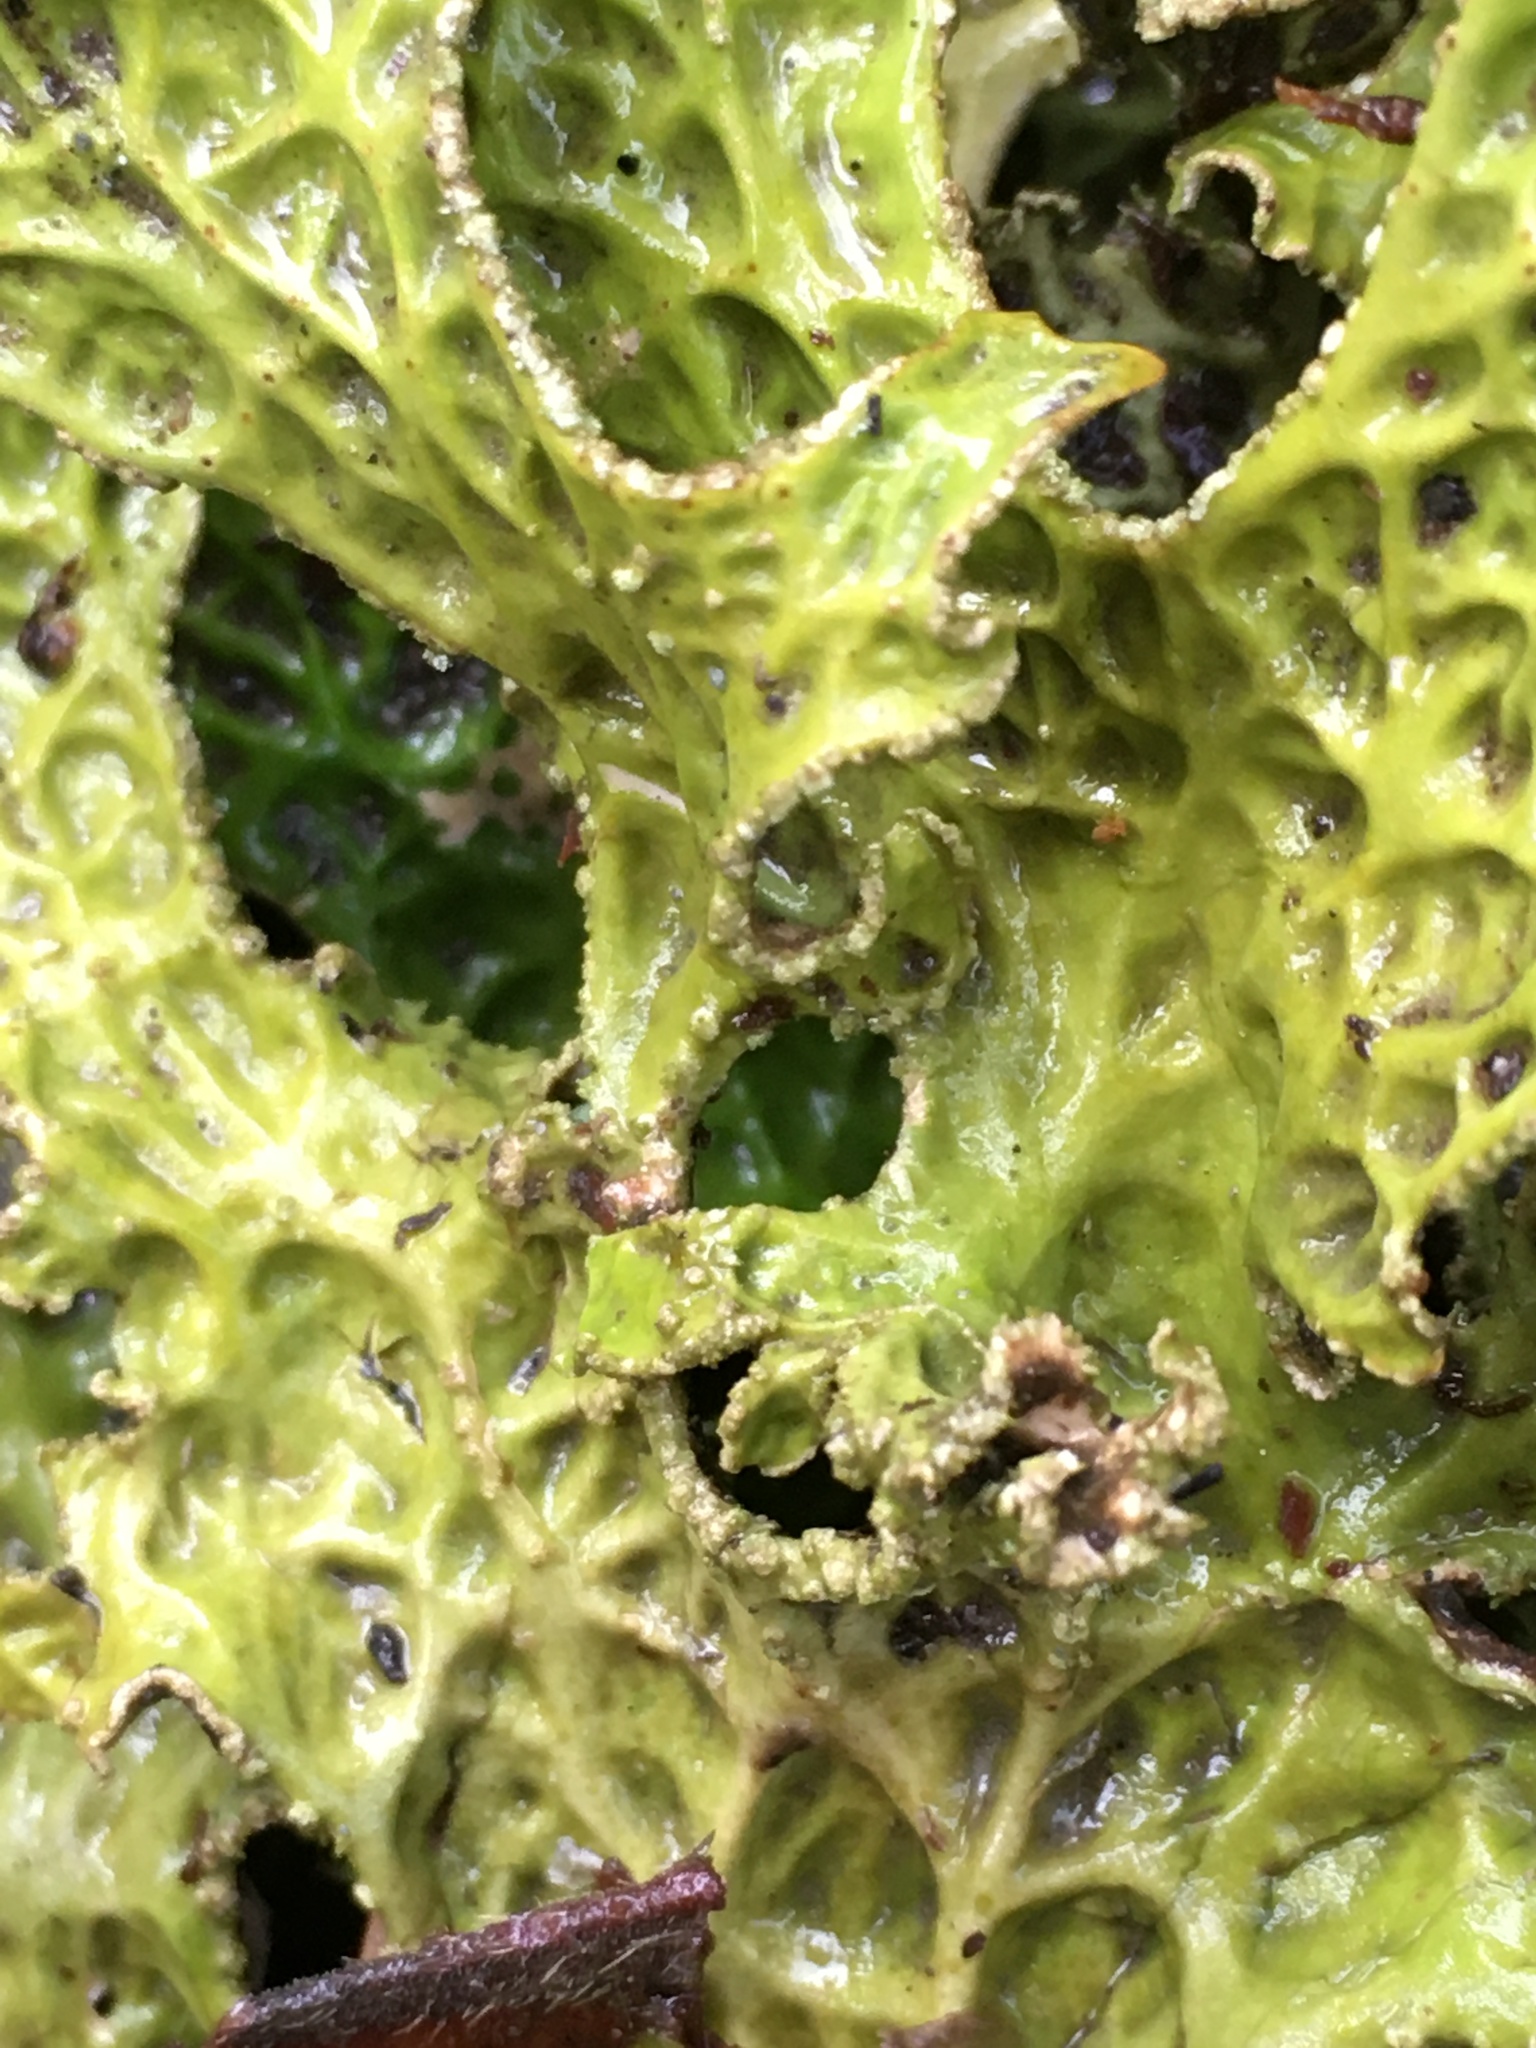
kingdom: Fungi
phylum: Ascomycota
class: Lecanoromycetes
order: Peltigerales
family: Lobariaceae
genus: Lobaria
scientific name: Lobaria pulmonaria
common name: Lungwort
